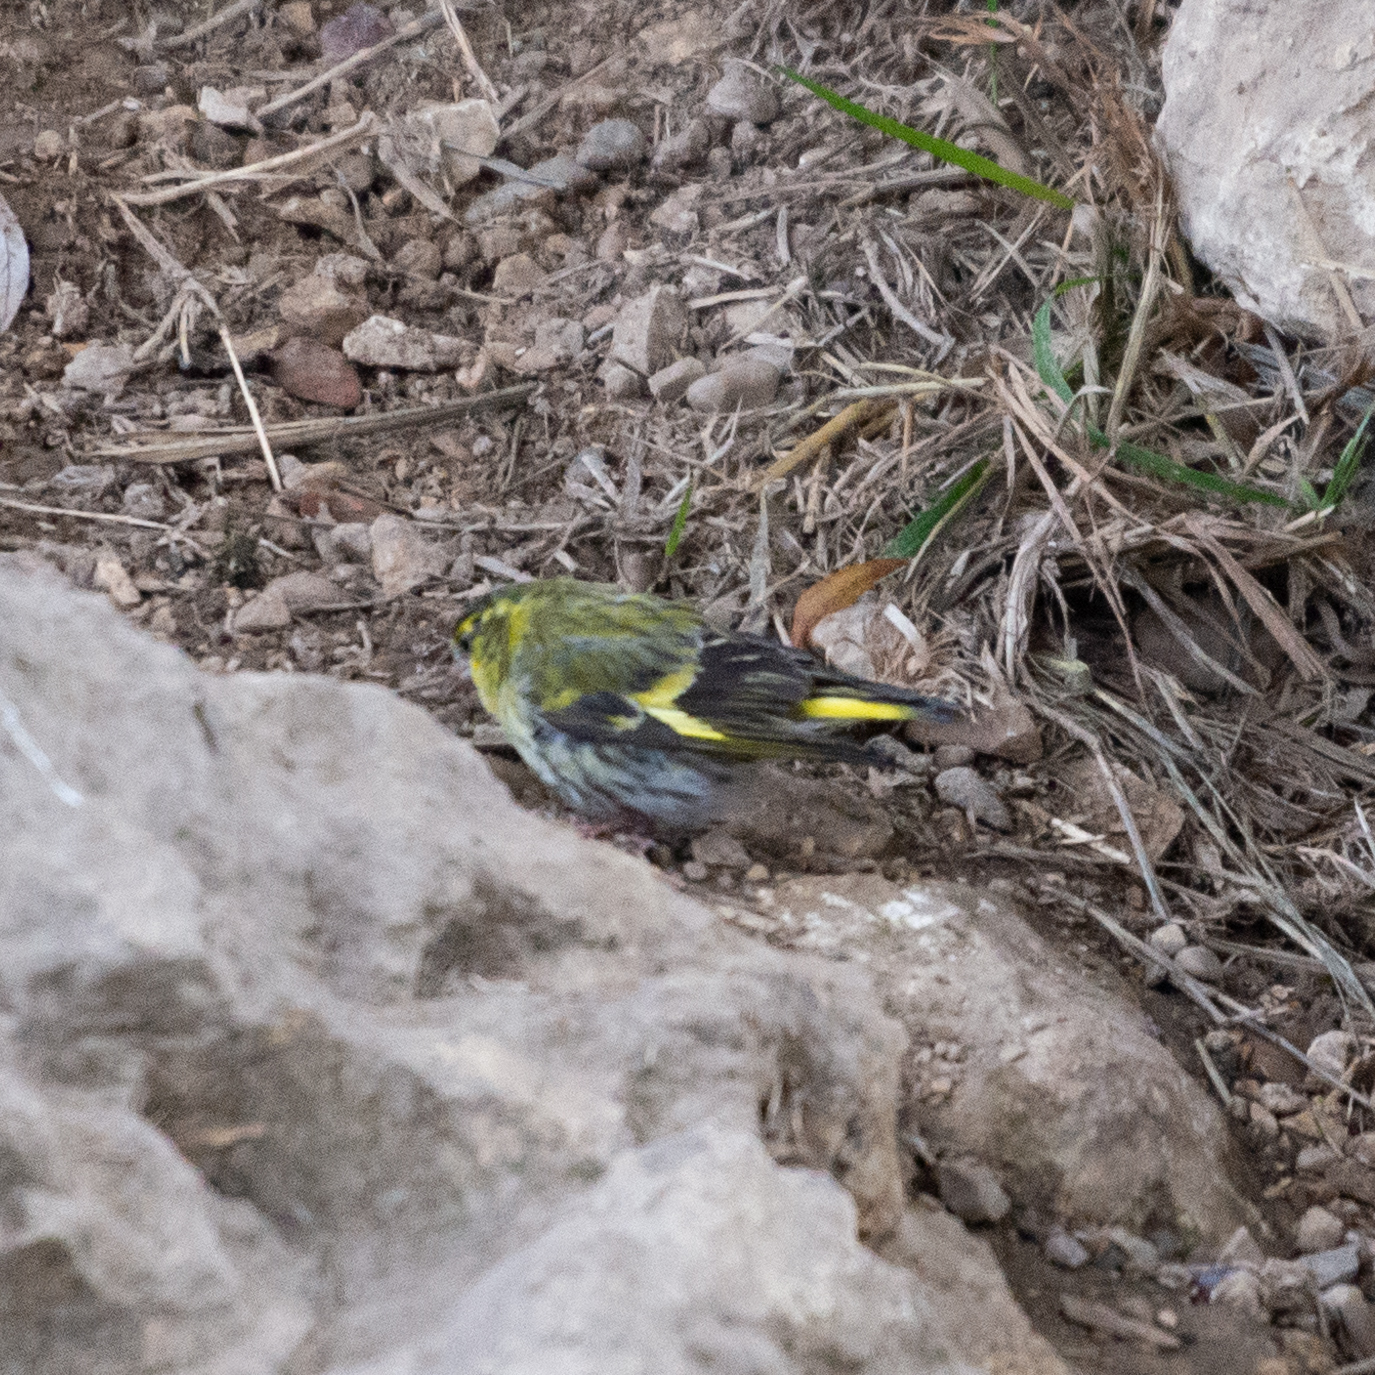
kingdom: Animalia
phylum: Chordata
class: Aves
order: Passeriformes
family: Fringillidae
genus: Spinus
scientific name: Spinus spinus
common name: Eurasian siskin
